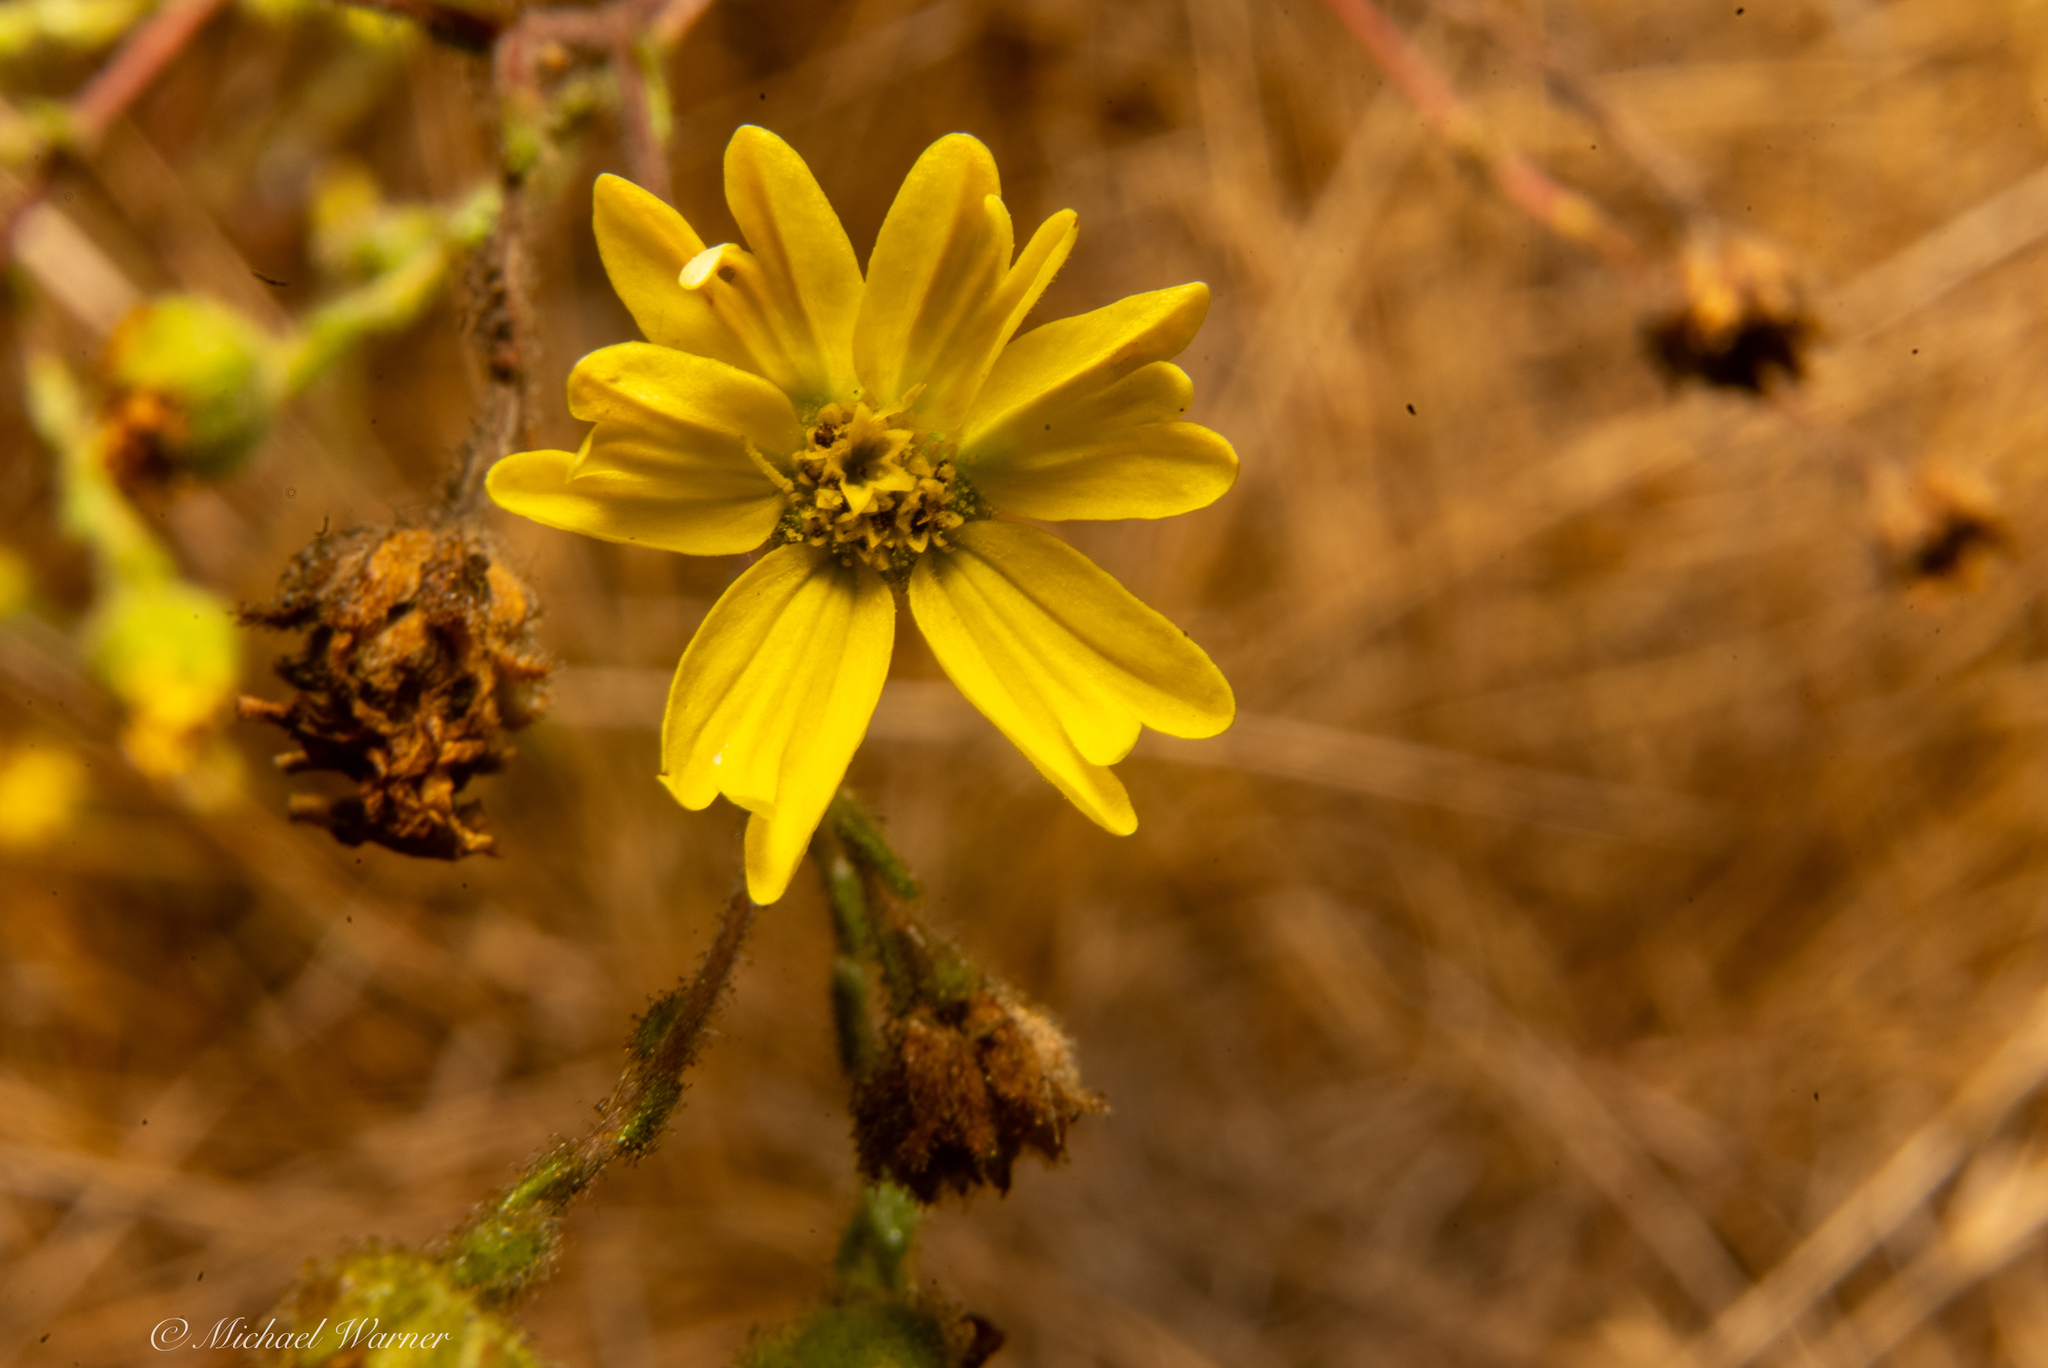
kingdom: Plantae
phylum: Tracheophyta
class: Magnoliopsida
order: Asterales
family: Asteraceae
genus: Hemizonia
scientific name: Hemizonia congesta
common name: Hayfield tarweed
